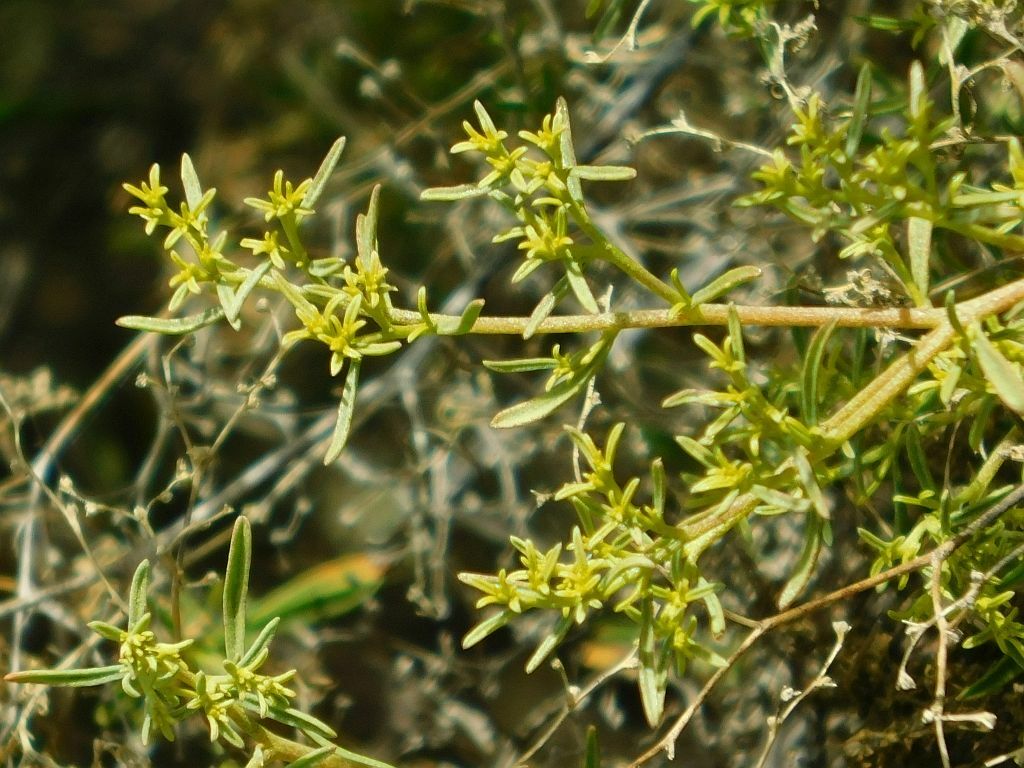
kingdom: Plantae
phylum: Tracheophyta
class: Magnoliopsida
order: Caryophyllales
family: Aizoaceae
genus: Aizoon
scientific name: Aizoon africanum
